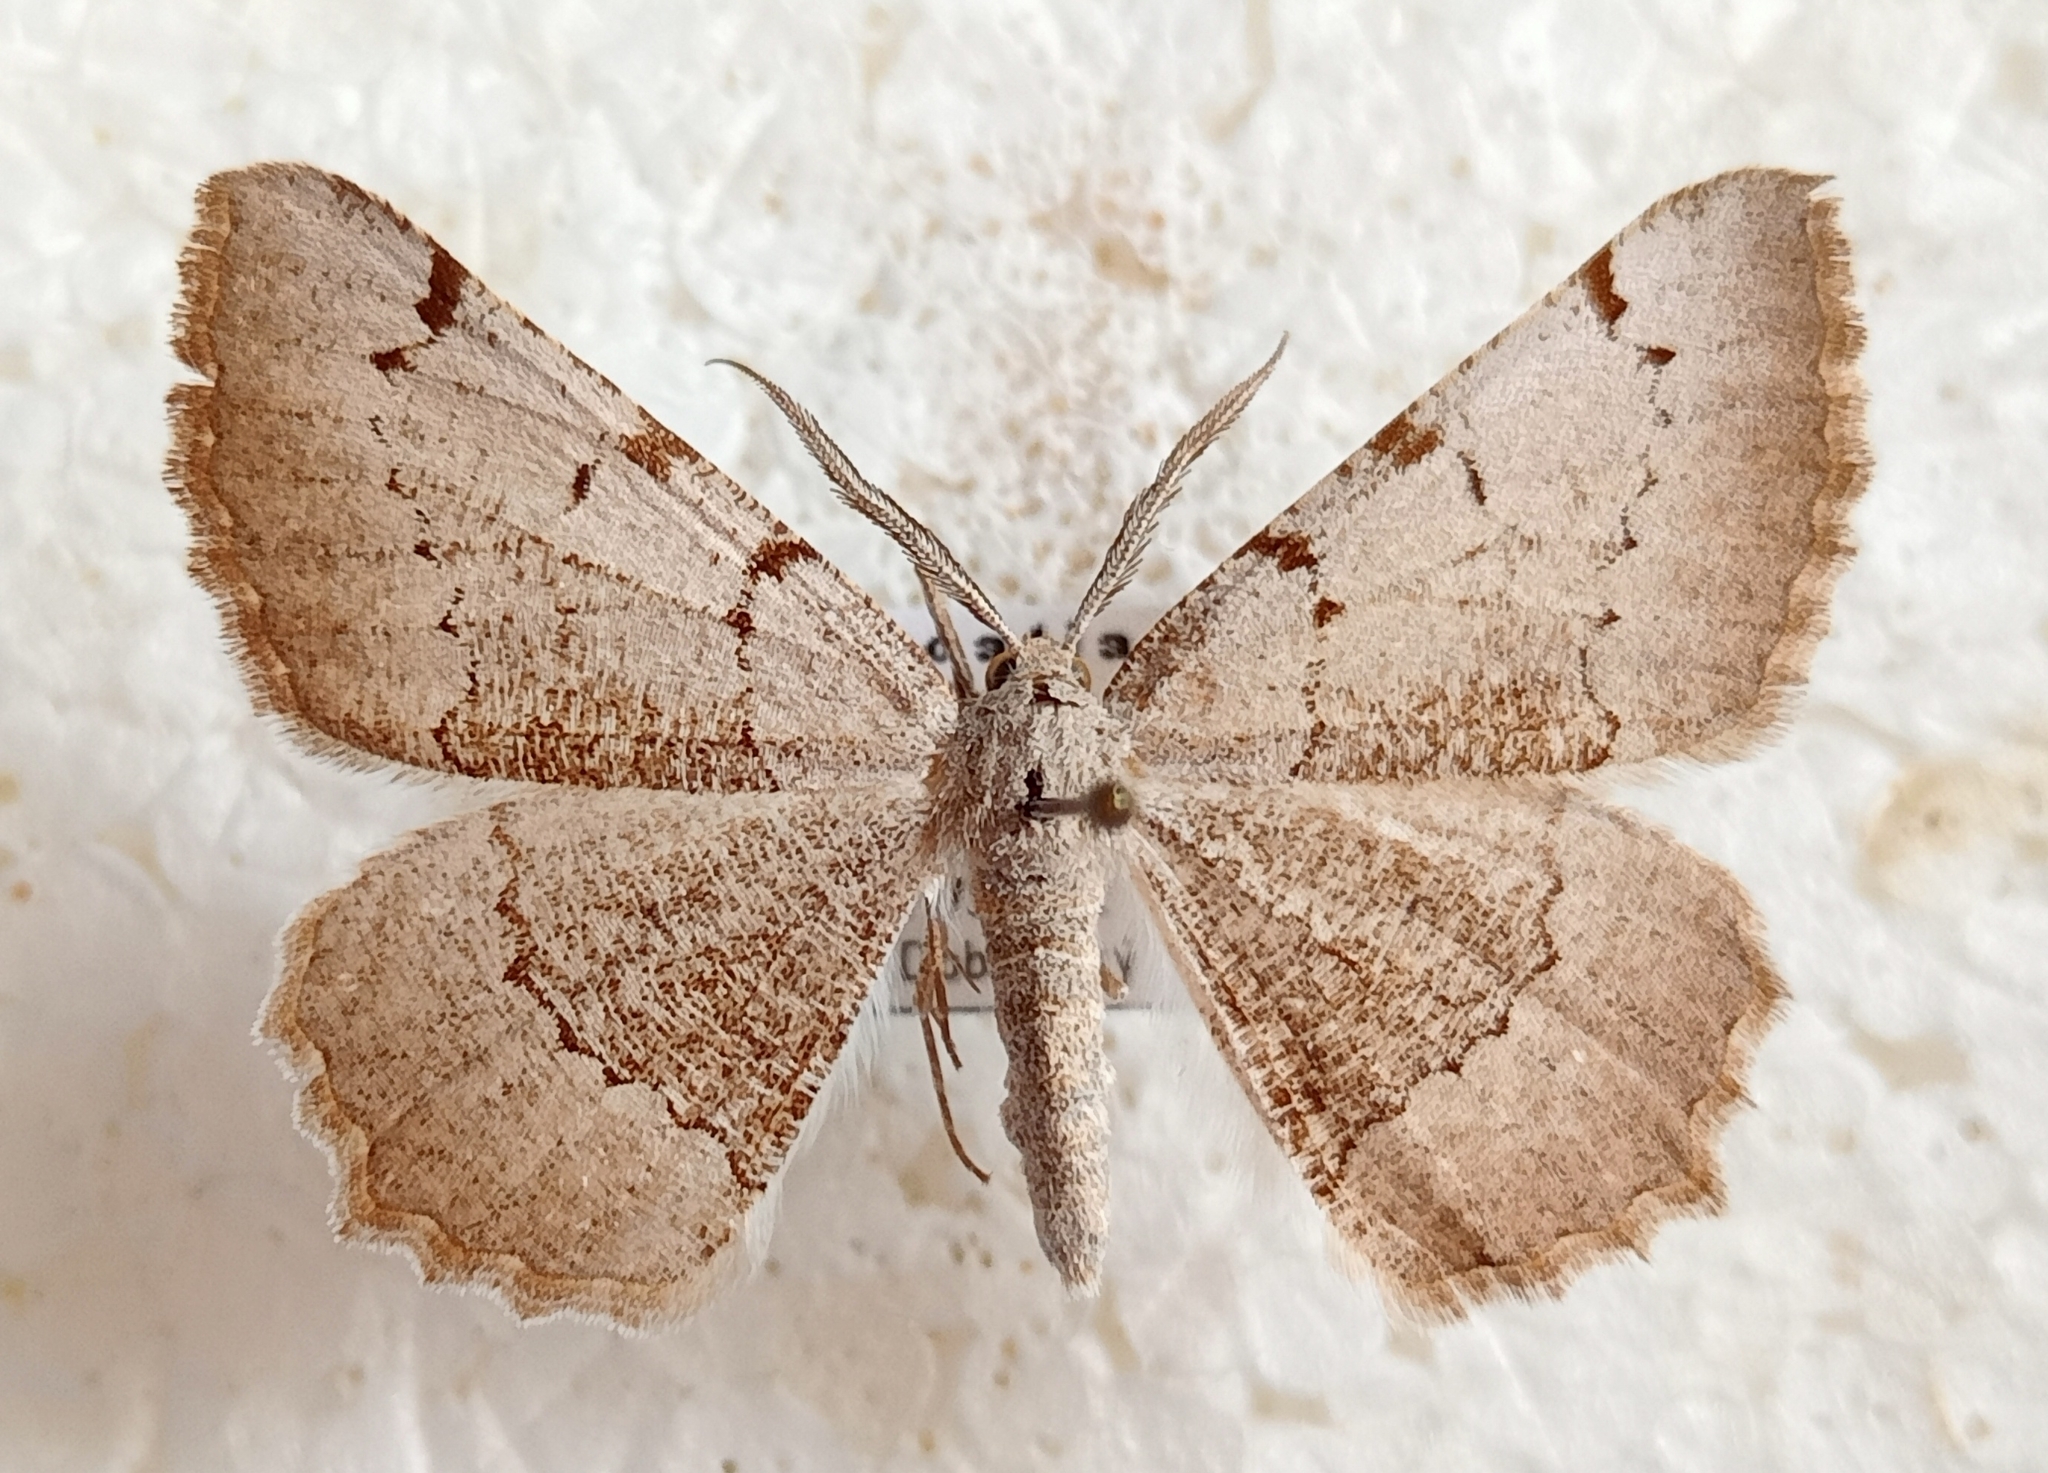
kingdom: Animalia
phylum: Arthropoda
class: Insecta
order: Lepidoptera
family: Geometridae
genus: Neognopharmia
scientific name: Neognopharmia stevenaria
